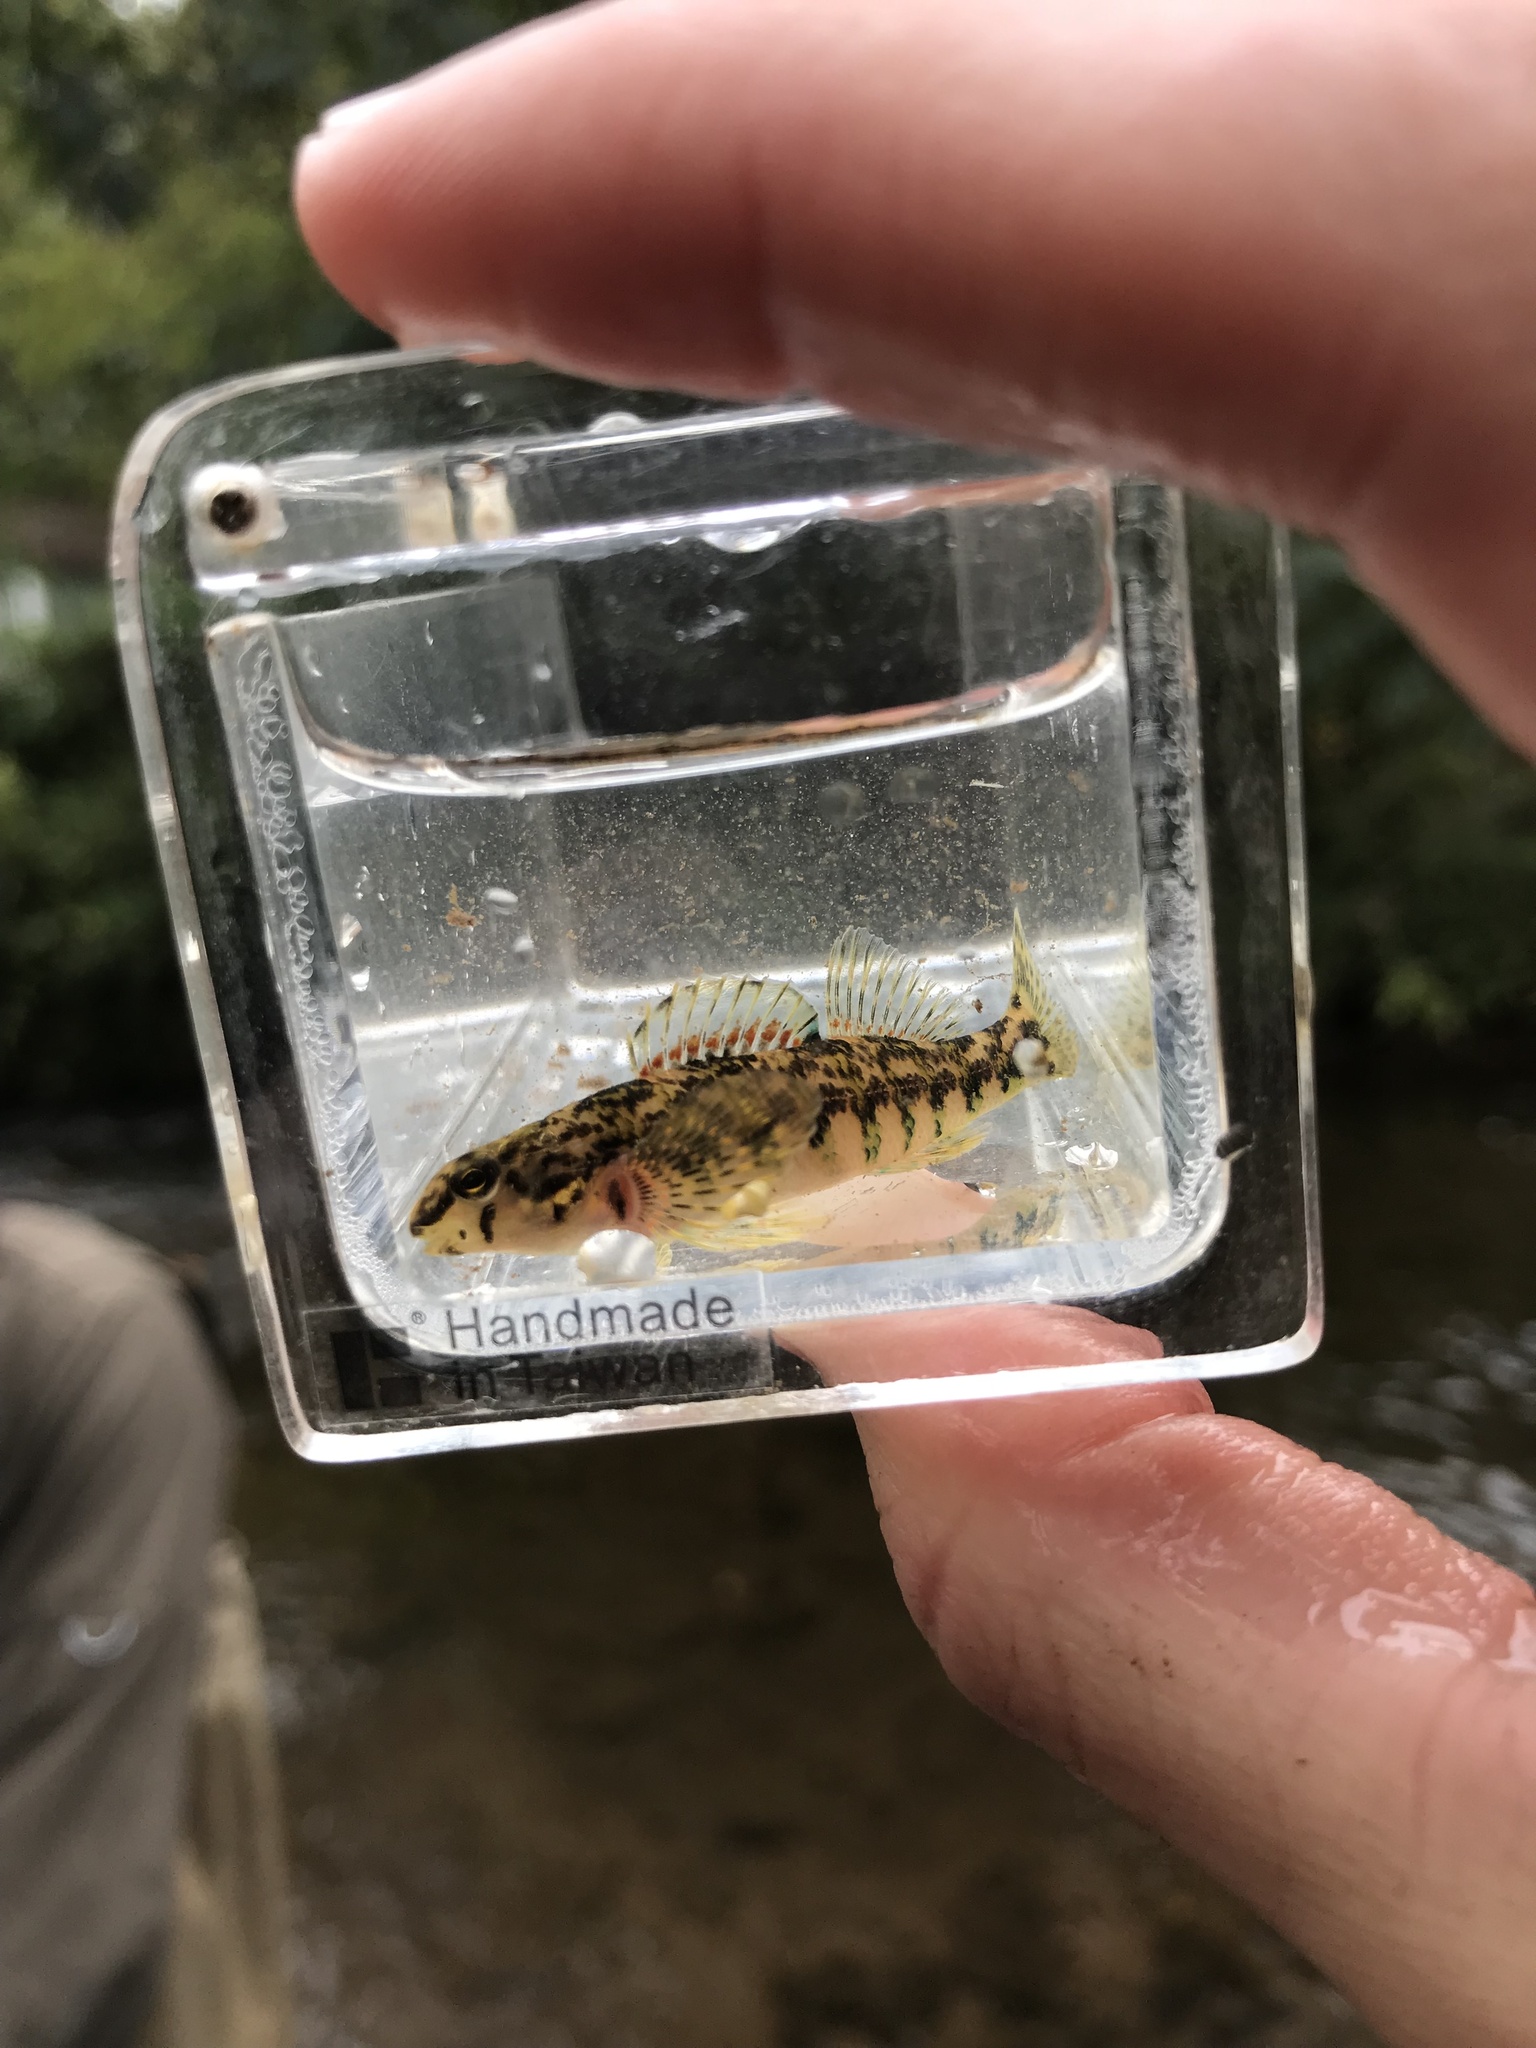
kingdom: Animalia
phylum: Chordata
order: Perciformes
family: Percidae
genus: Etheostoma
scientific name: Etheostoma zonale
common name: Banded darter
